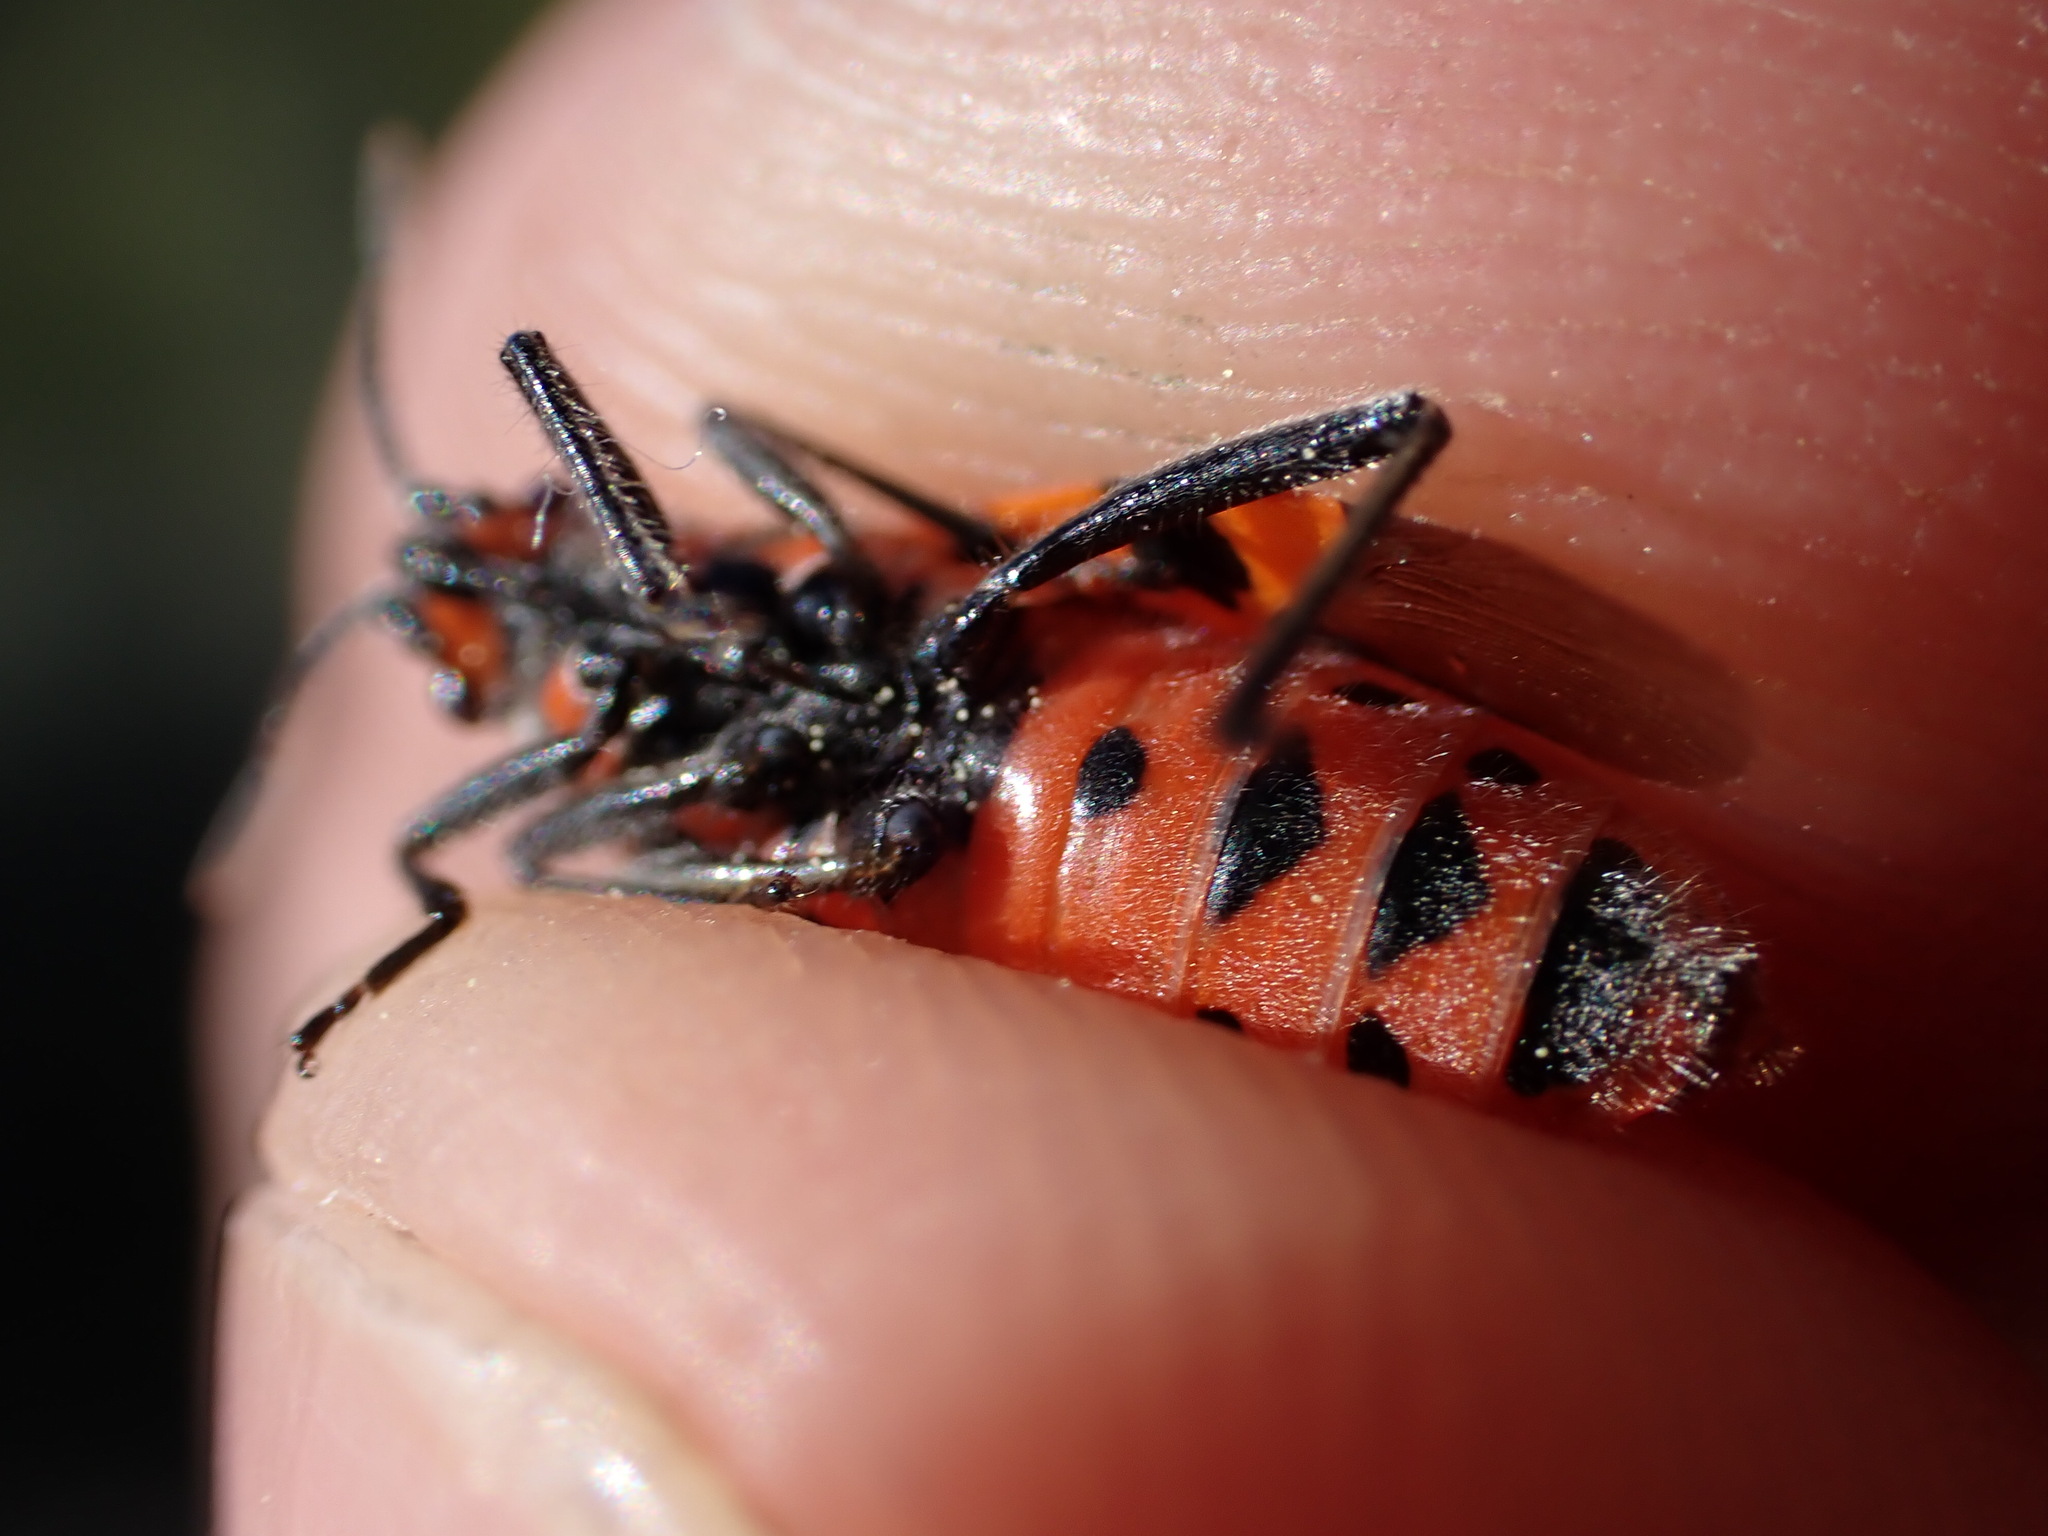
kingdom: Animalia
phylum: Arthropoda
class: Insecta
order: Hemiptera
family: Rhopalidae
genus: Corizus
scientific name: Corizus hyoscyami
